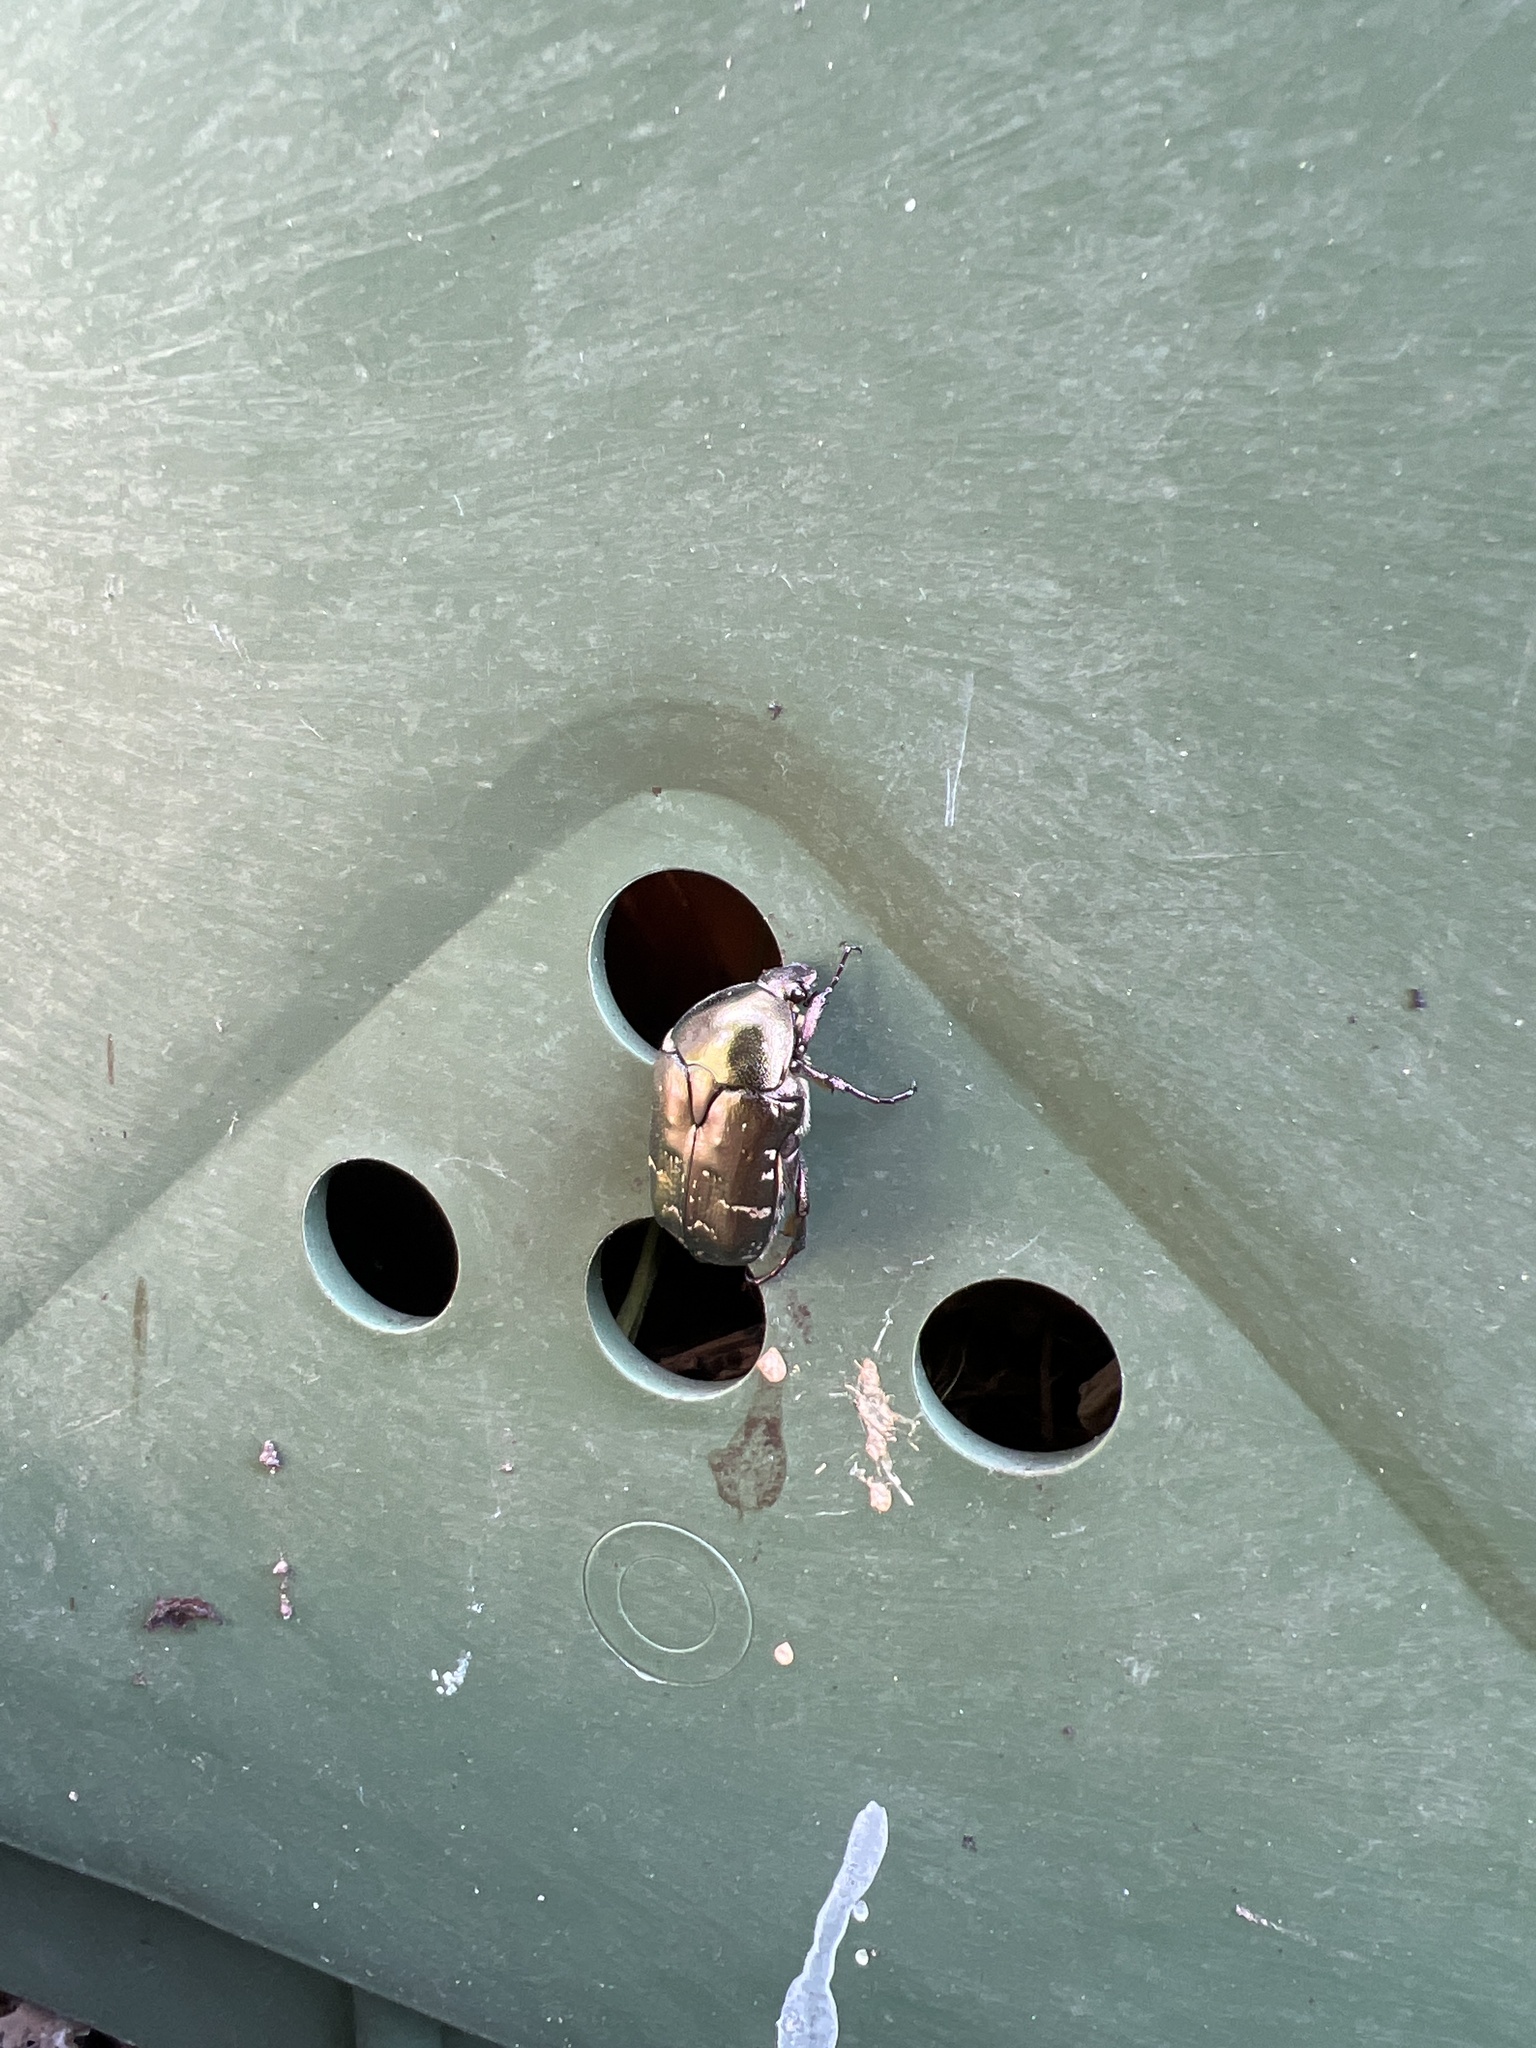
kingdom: Animalia
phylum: Arthropoda
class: Insecta
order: Coleoptera
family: Scarabaeidae
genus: Protaetia
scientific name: Protaetia cuprea
